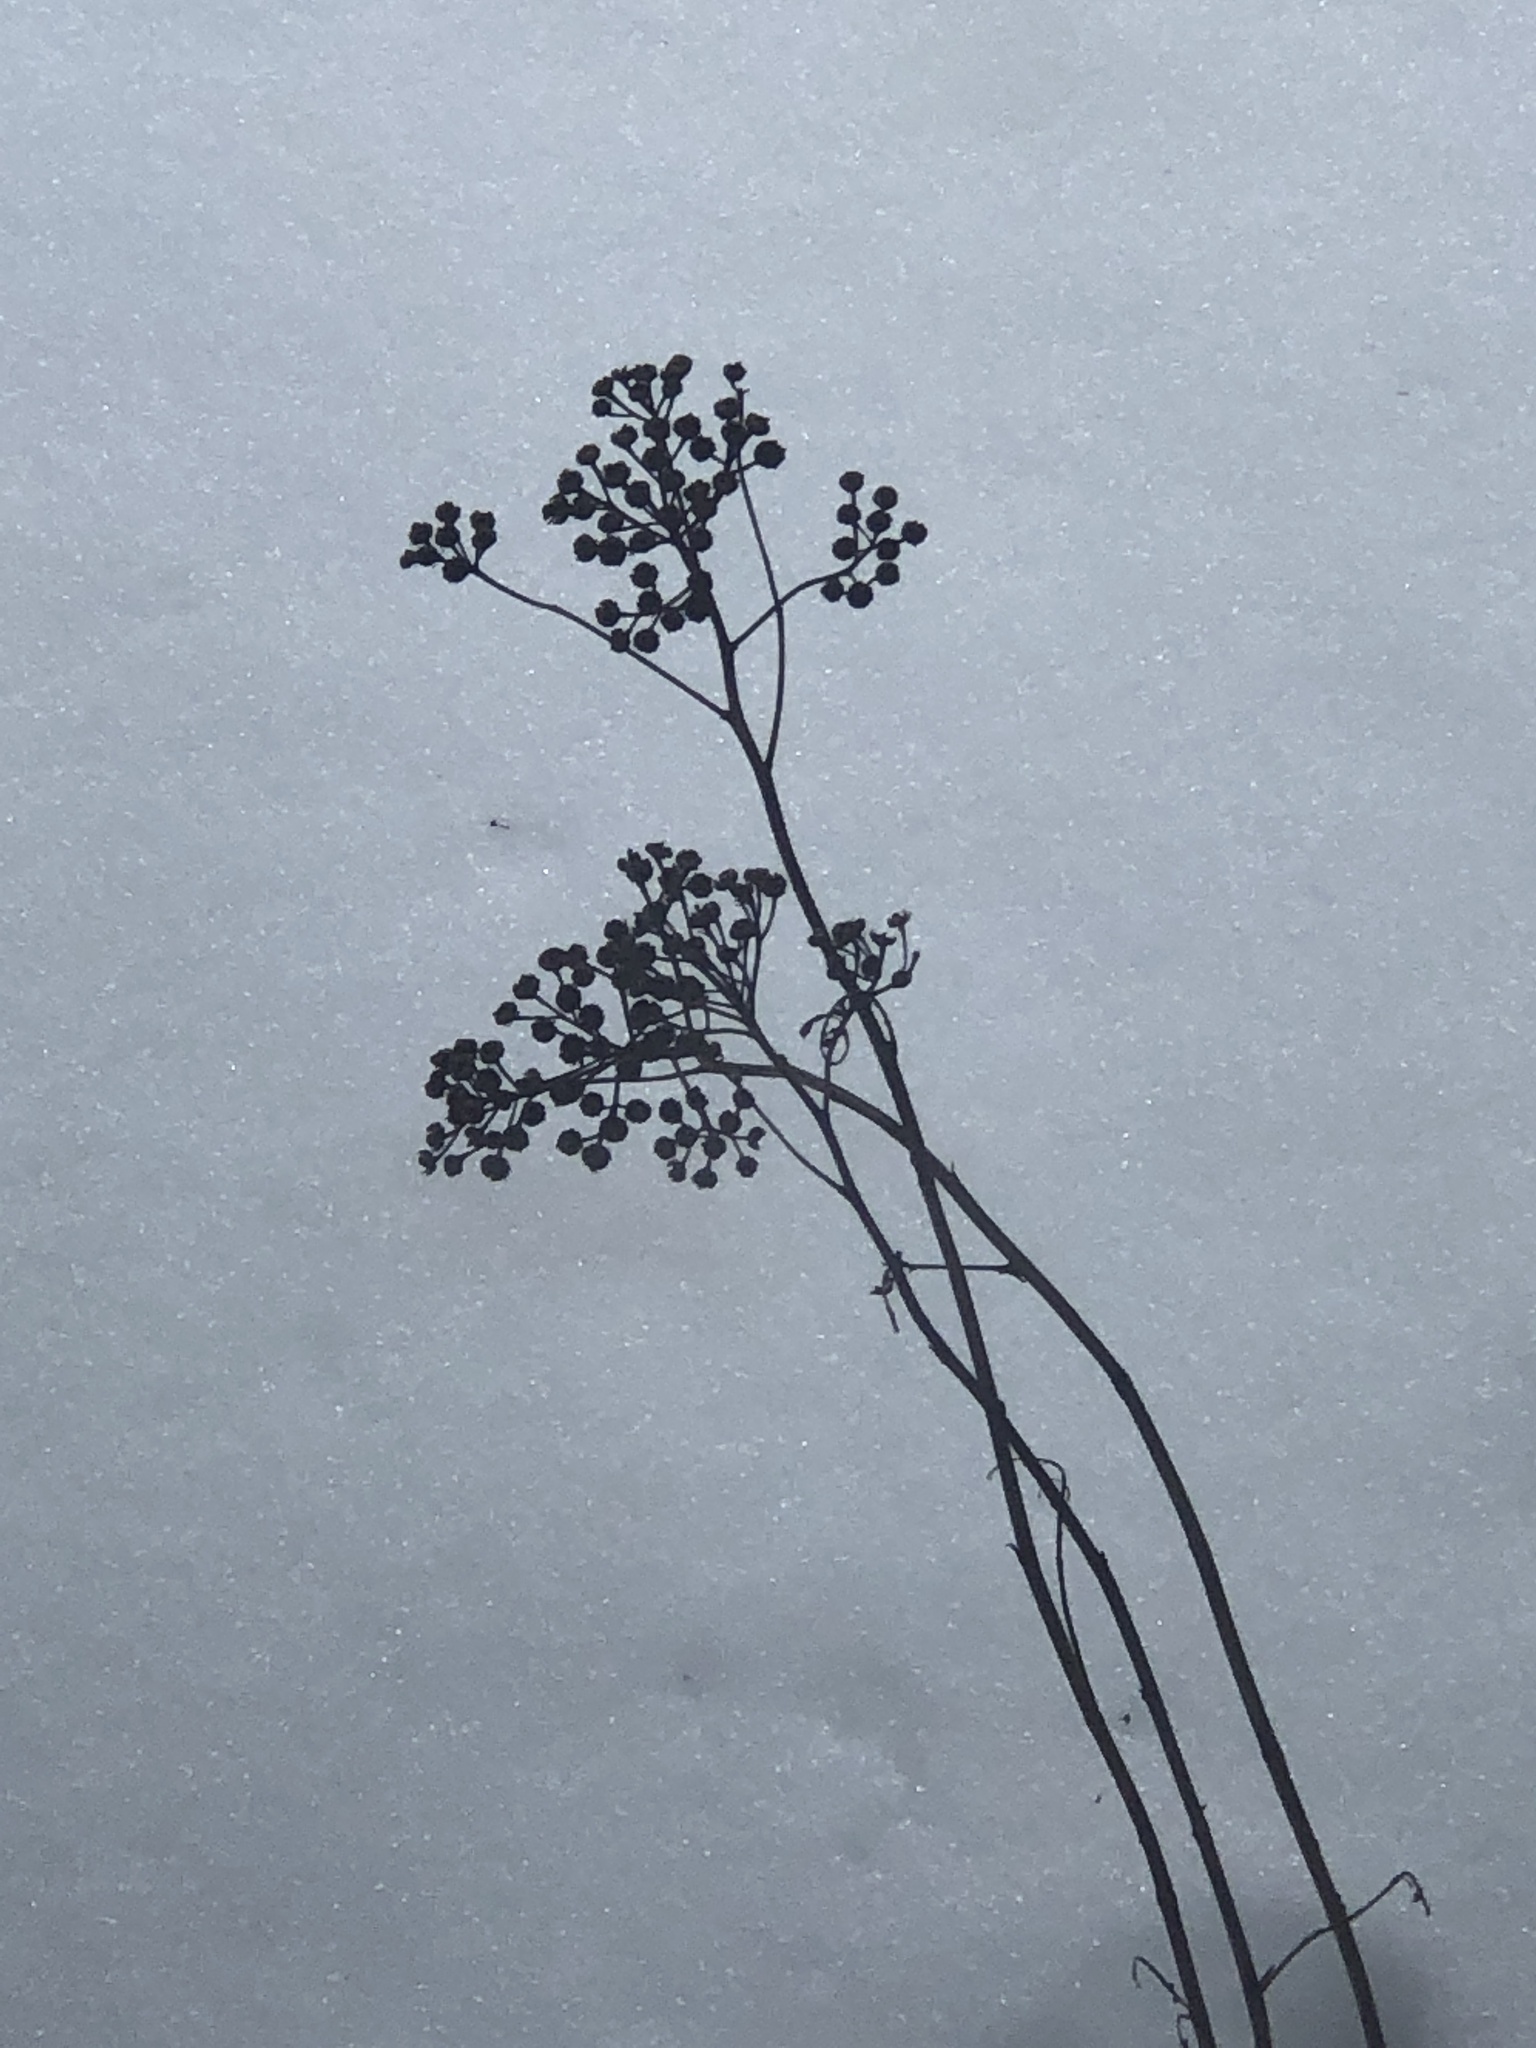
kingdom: Plantae
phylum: Tracheophyta
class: Magnoliopsida
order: Asterales
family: Asteraceae
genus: Tanacetum
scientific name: Tanacetum vulgare
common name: Common tansy
